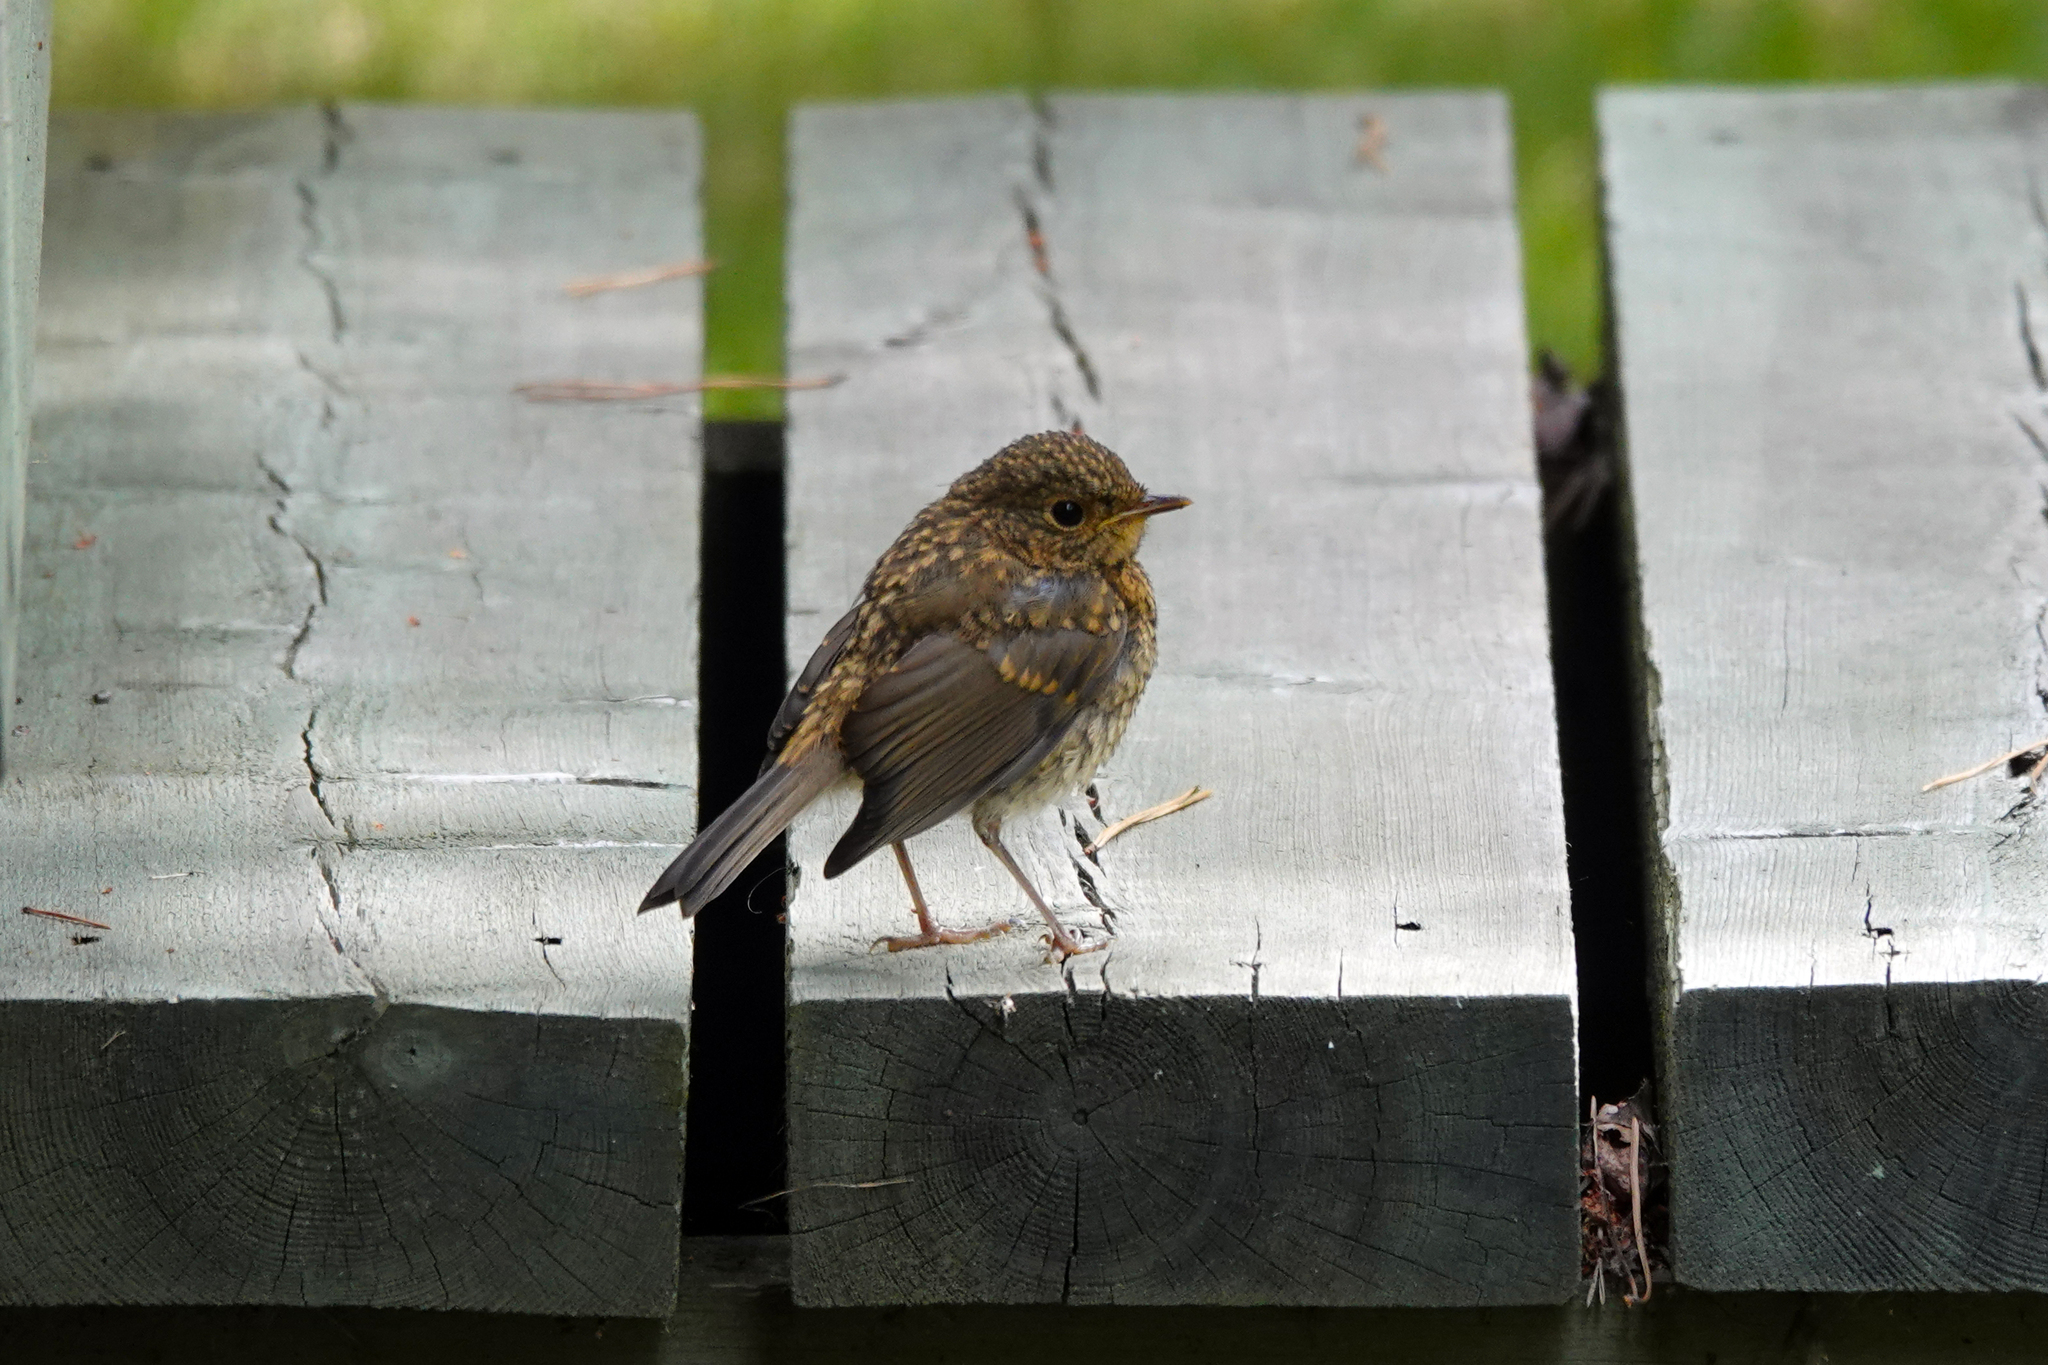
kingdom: Animalia
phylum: Chordata
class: Aves
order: Passeriformes
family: Muscicapidae
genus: Erithacus
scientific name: Erithacus rubecula
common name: European robin
